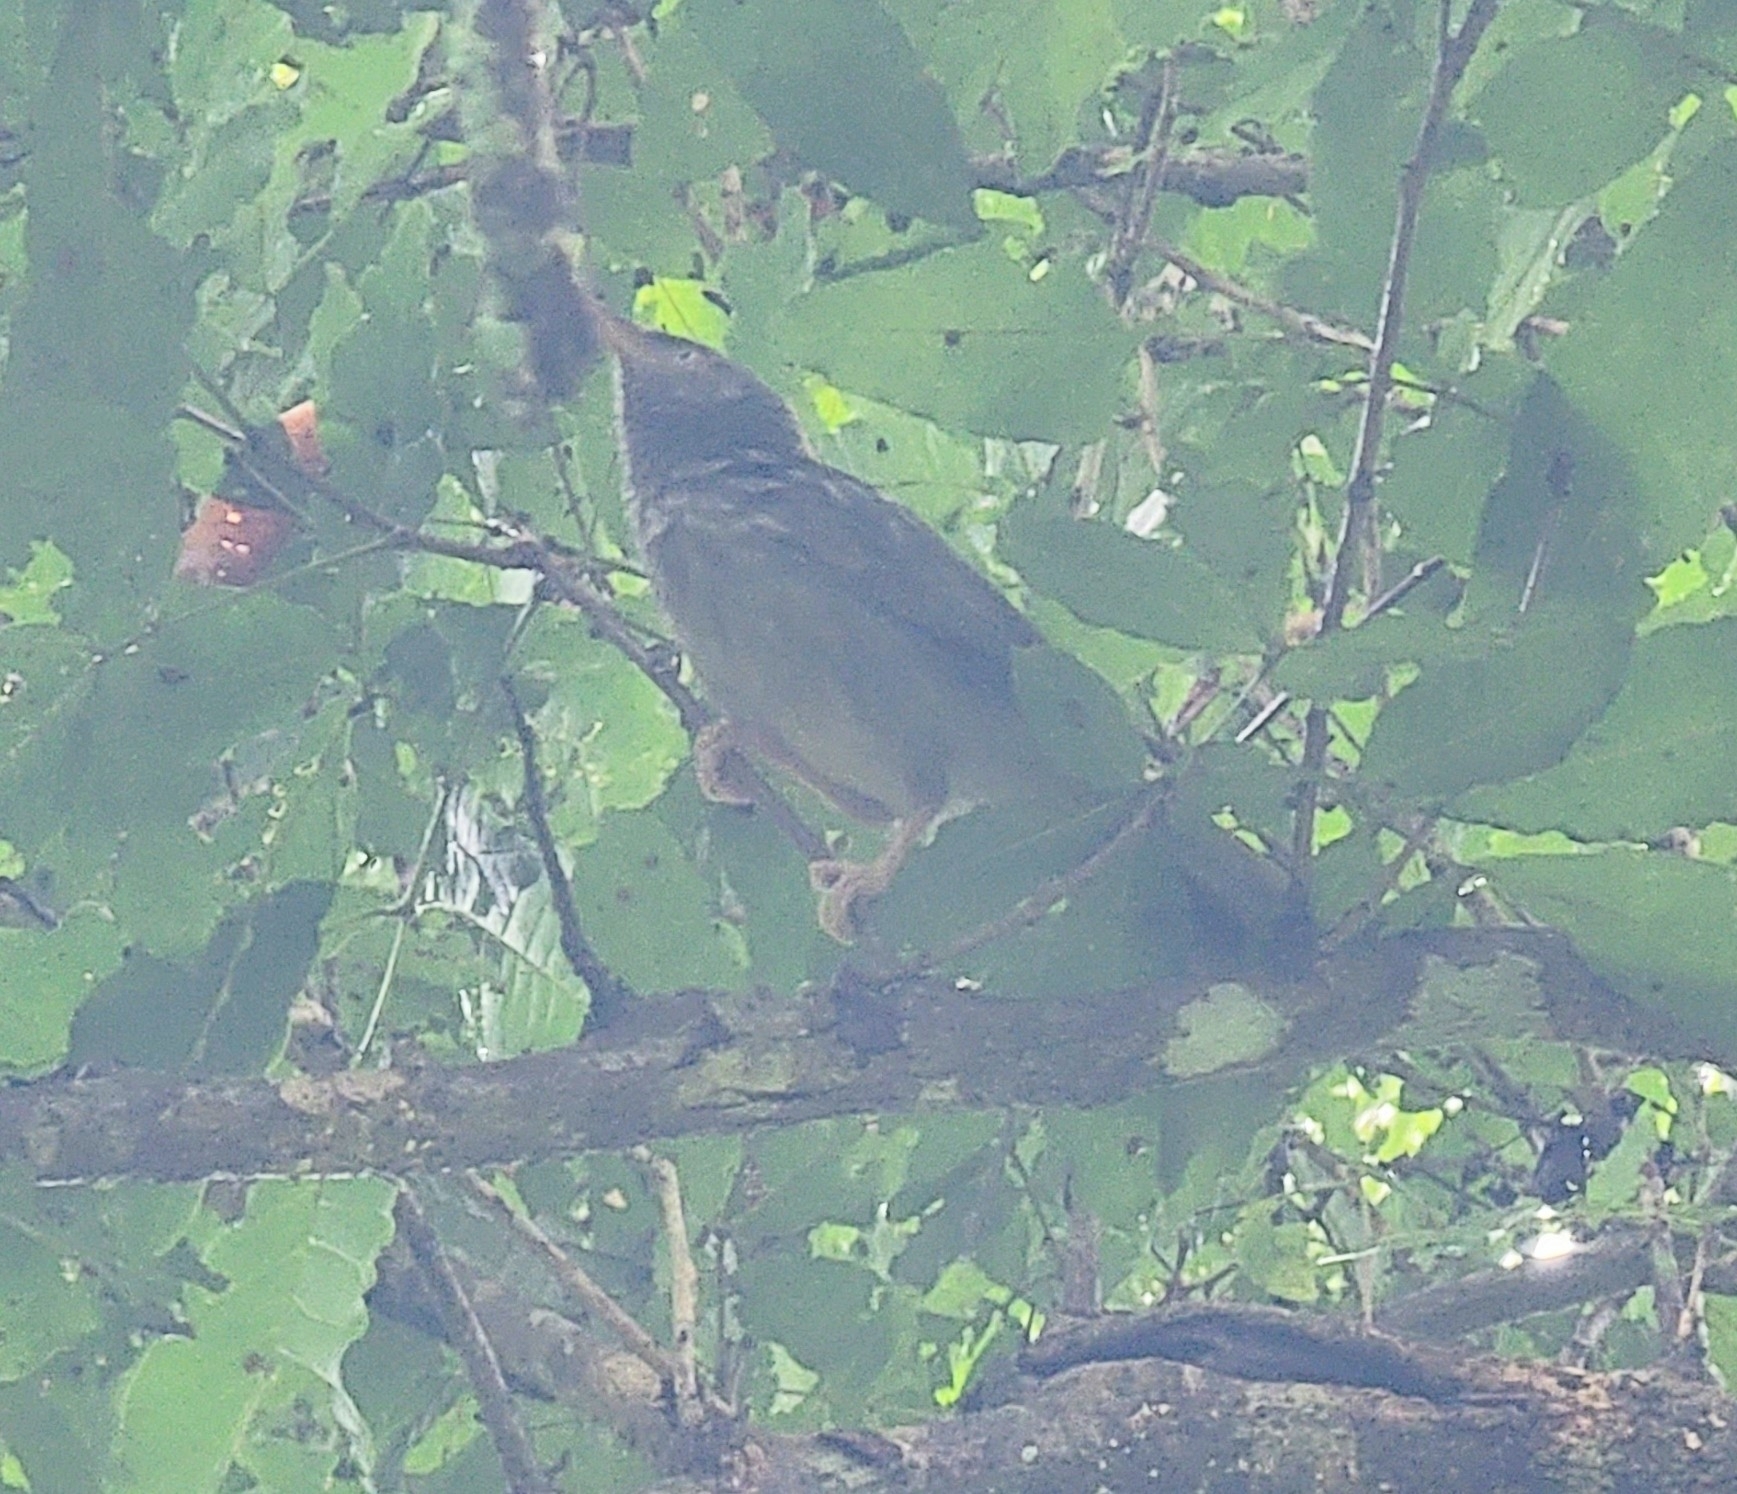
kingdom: Animalia
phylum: Chordata
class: Aves
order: Passeriformes
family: Leiothrichidae
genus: Turdoides
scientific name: Turdoides striata
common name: Jungle babbler
